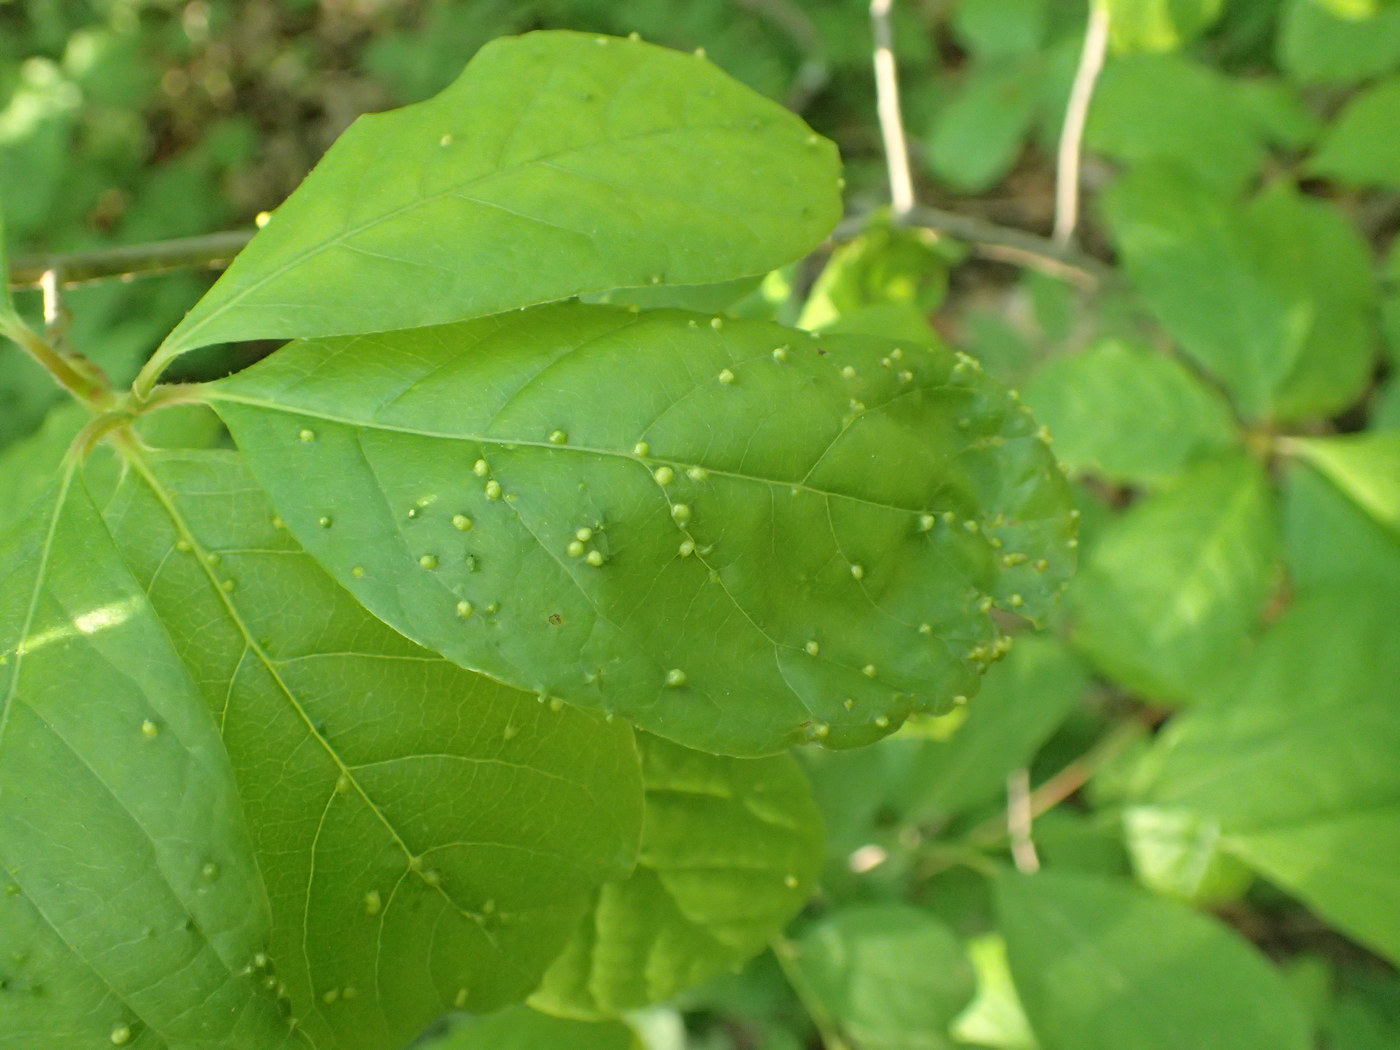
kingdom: Animalia
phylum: Arthropoda
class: Arachnida
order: Trombidiformes
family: Eriophyidae
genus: Aceria
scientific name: Aceria
